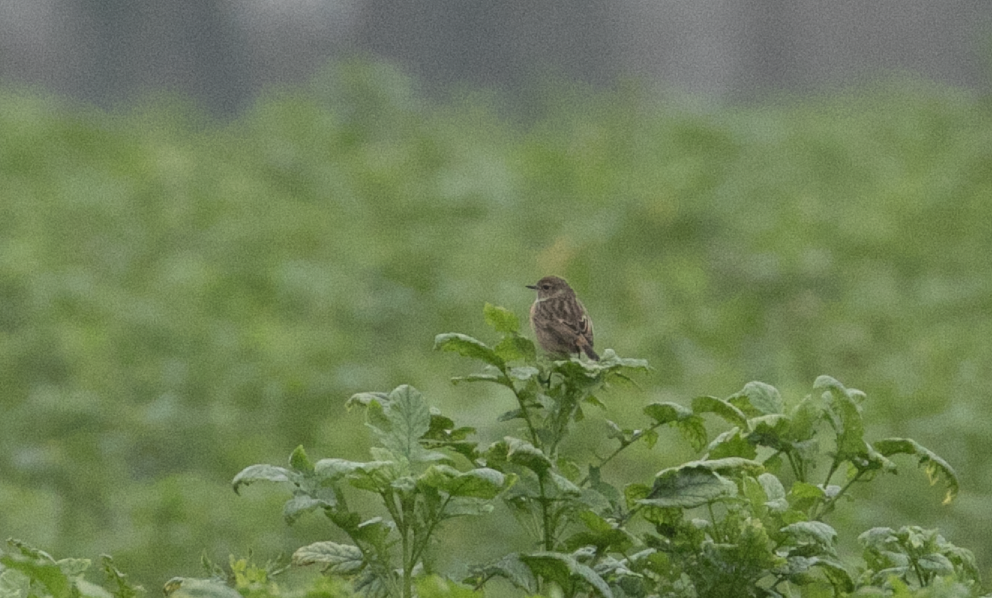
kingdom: Animalia
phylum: Chordata
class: Aves
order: Passeriformes
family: Muscicapidae
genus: Saxicola
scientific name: Saxicola rubicola
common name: European stonechat
